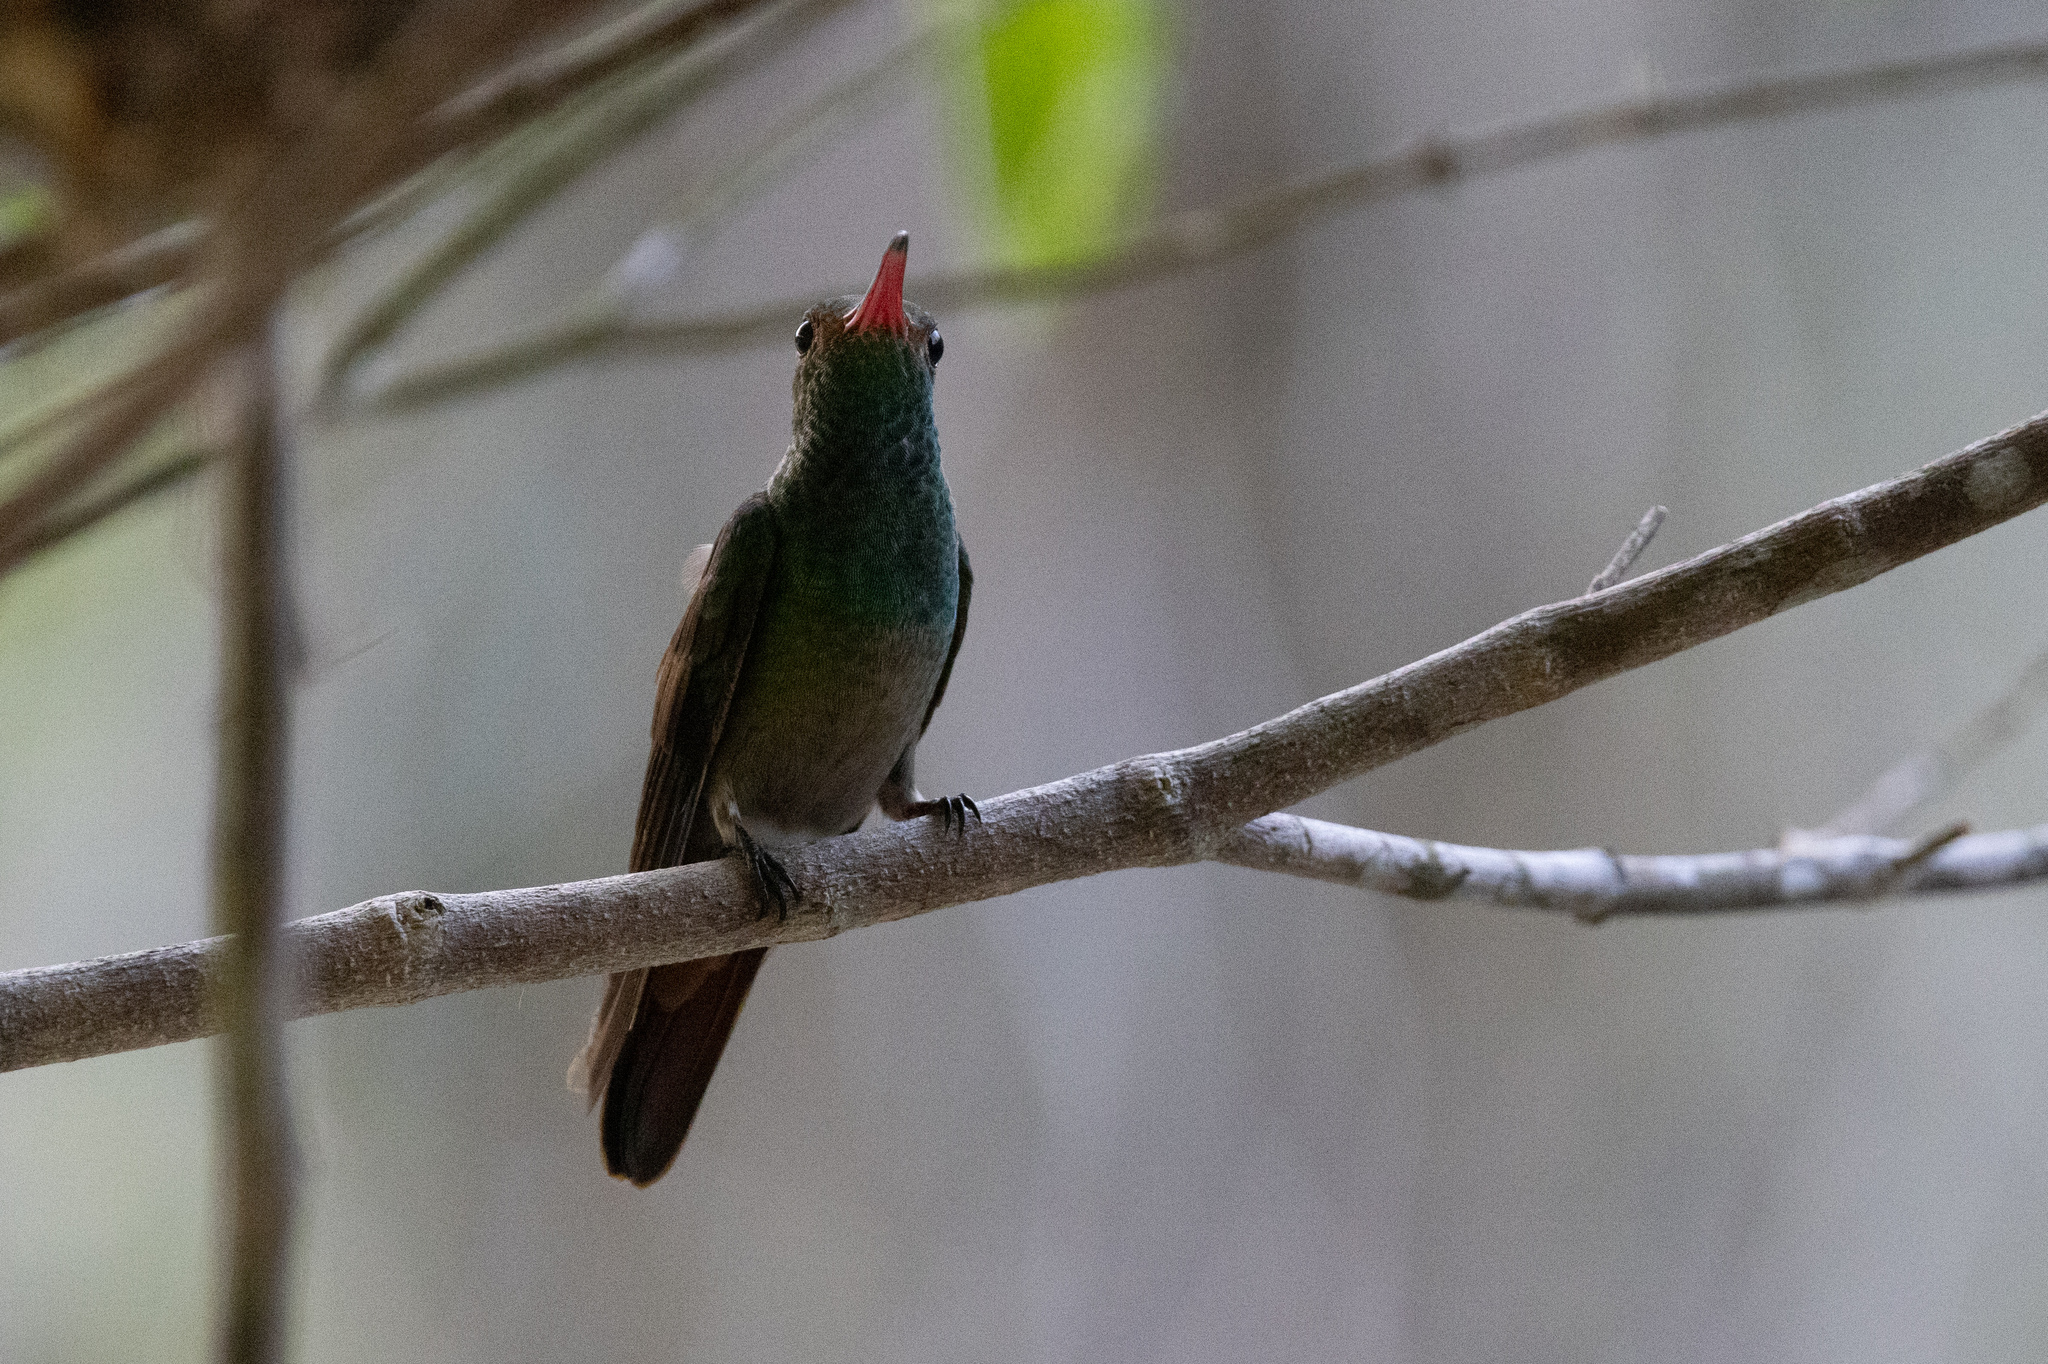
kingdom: Animalia
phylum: Chordata
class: Aves
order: Apodiformes
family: Trochilidae
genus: Amazilia
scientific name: Amazilia tzacatl
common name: Rufous-tailed hummingbird
